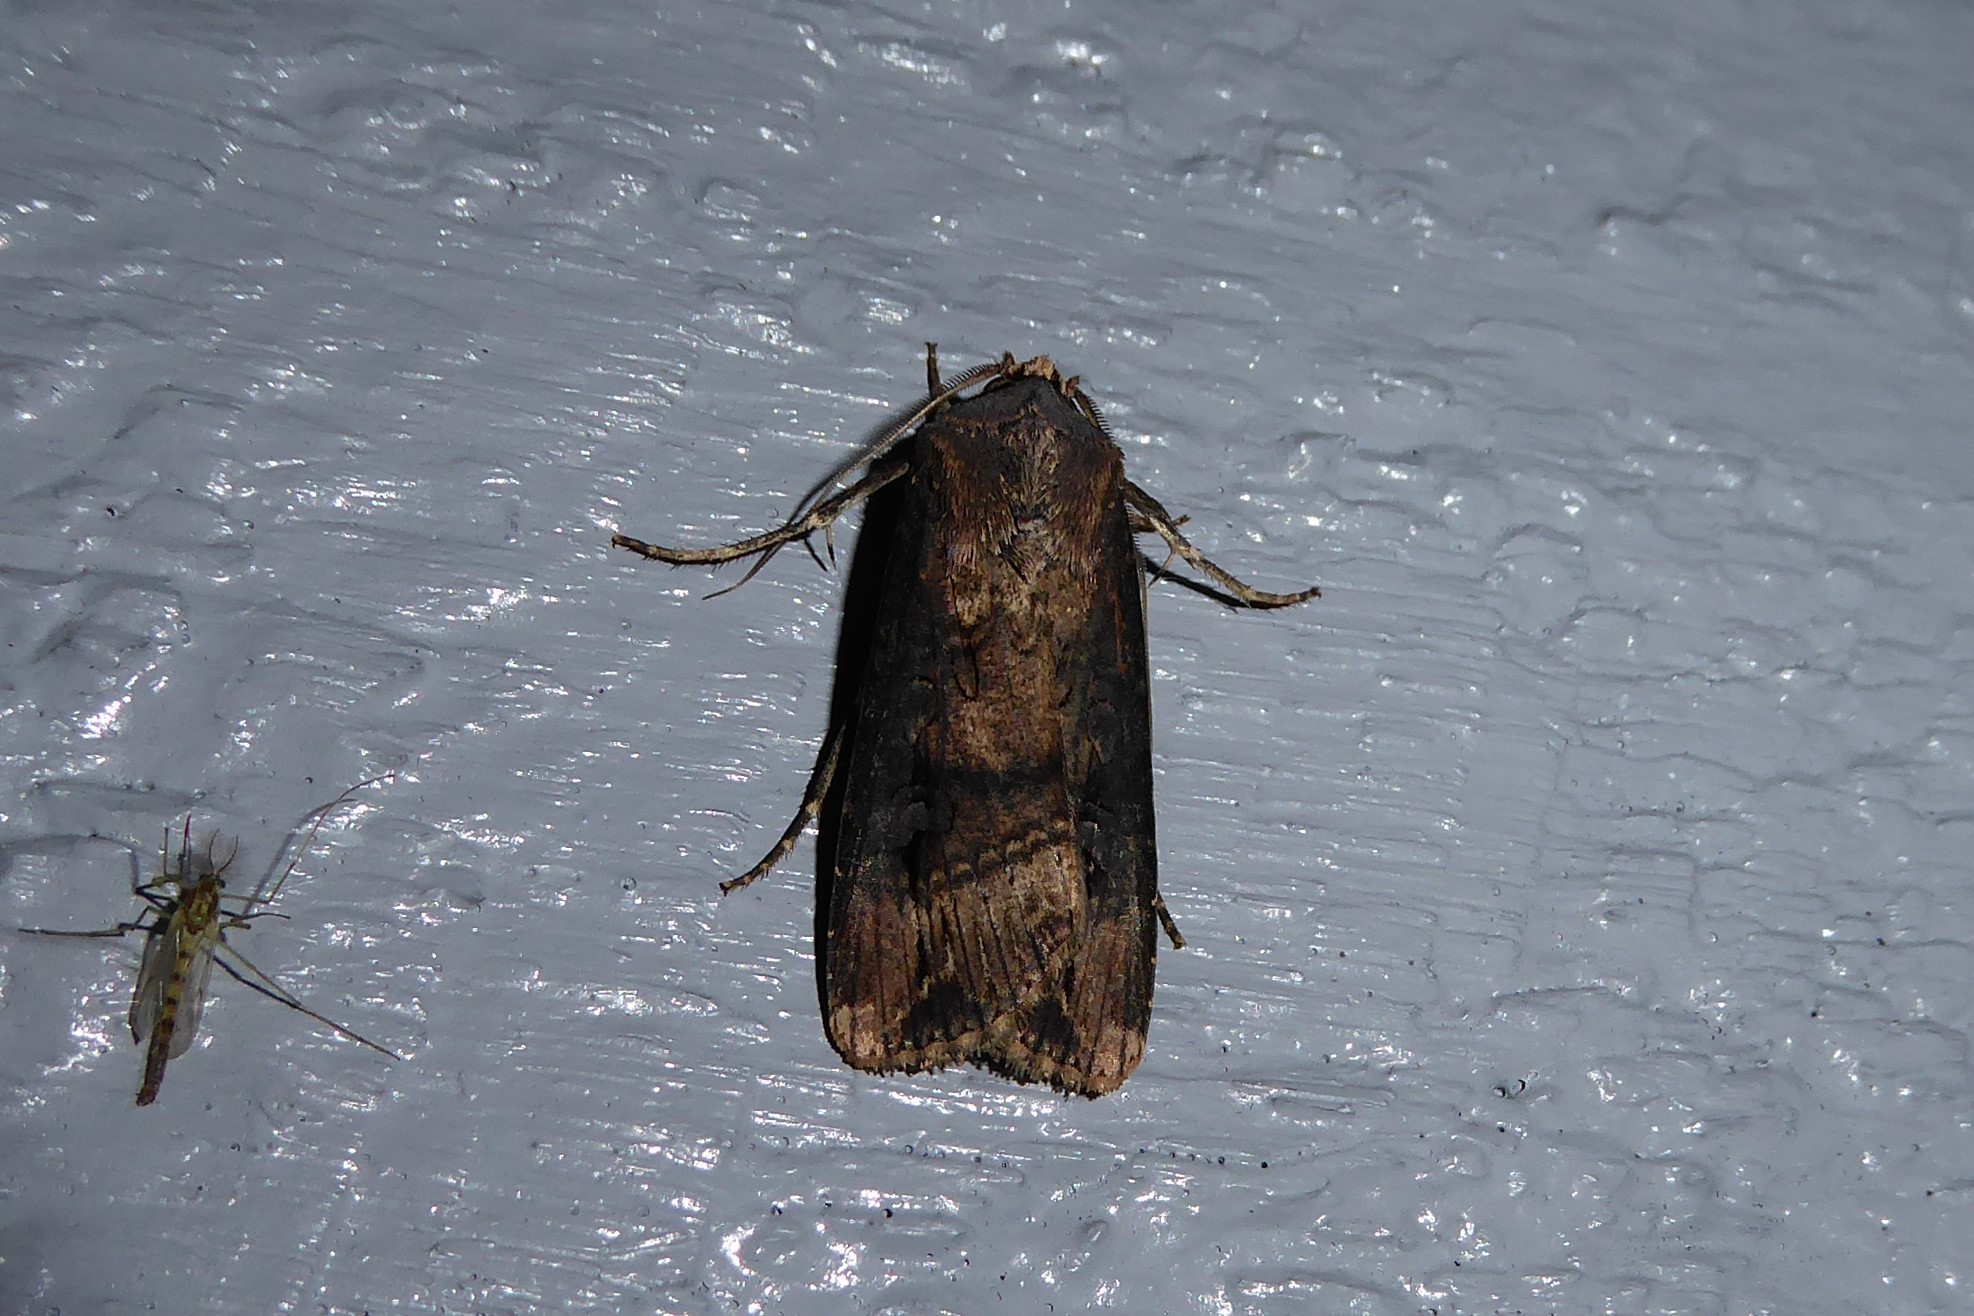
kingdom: Animalia
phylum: Arthropoda
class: Insecta
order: Lepidoptera
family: Noctuidae
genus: Agrotis
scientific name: Agrotis ipsilon
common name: Dark sword-grass
